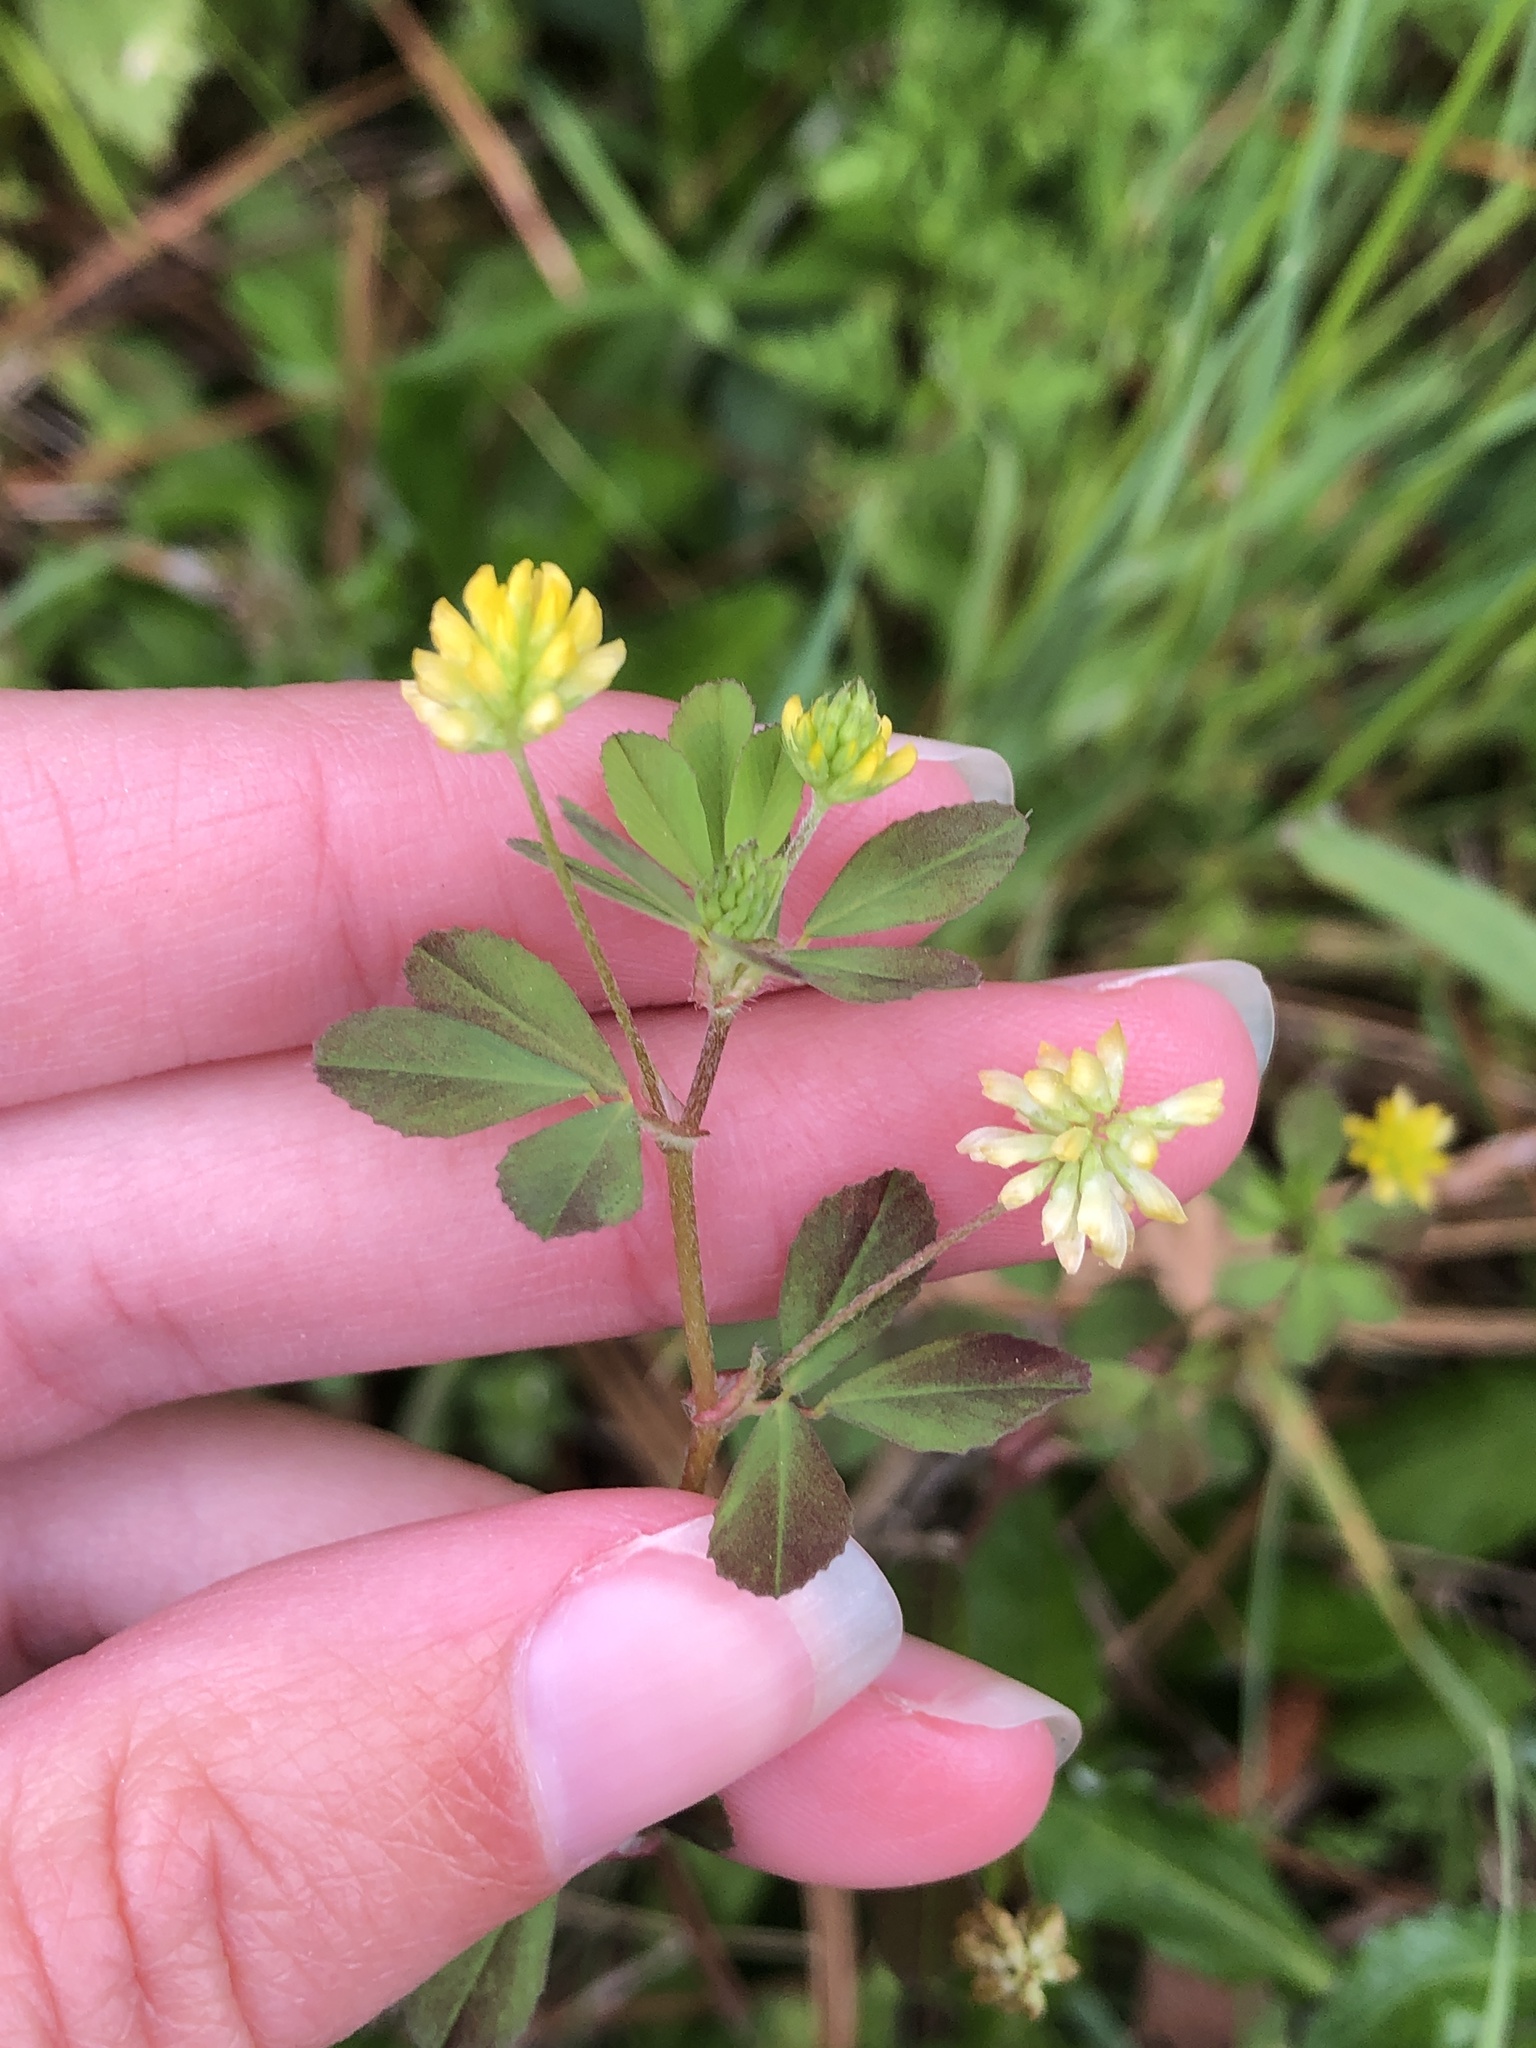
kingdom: Plantae
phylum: Tracheophyta
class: Magnoliopsida
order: Fabales
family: Fabaceae
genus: Trifolium
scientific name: Trifolium dubium
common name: Suckling clover
